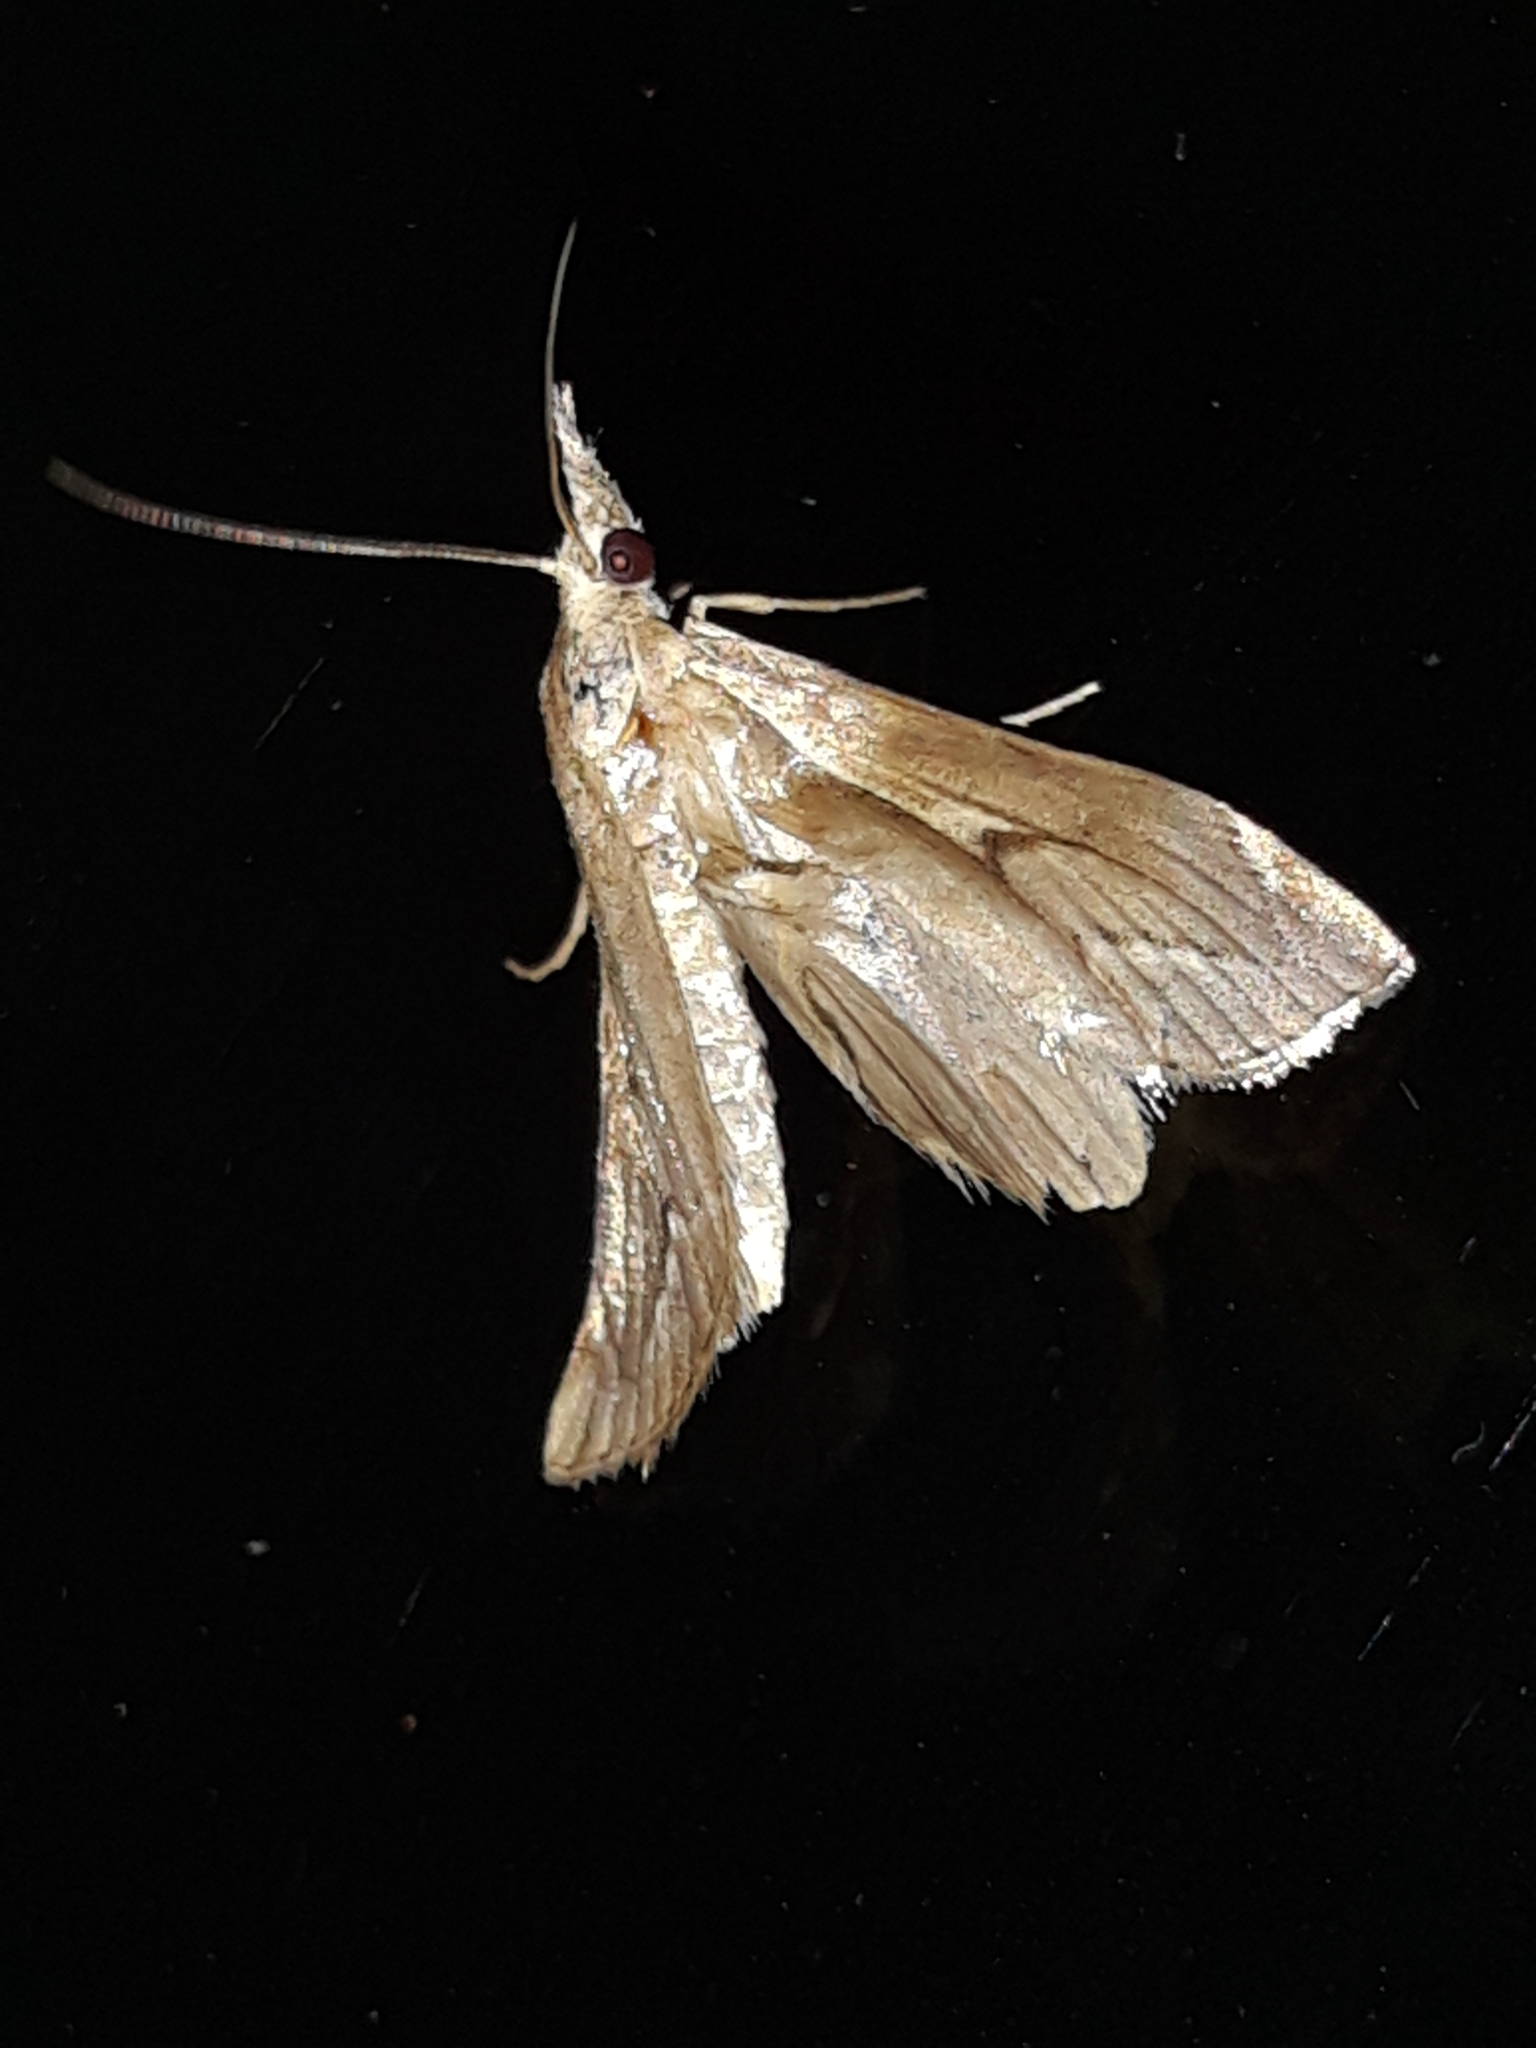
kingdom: Animalia
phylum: Arthropoda
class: Insecta
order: Lepidoptera
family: Crambidae
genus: Agriphila
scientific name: Agriphila geniculea
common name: Elbow-stripe grass-veneer
